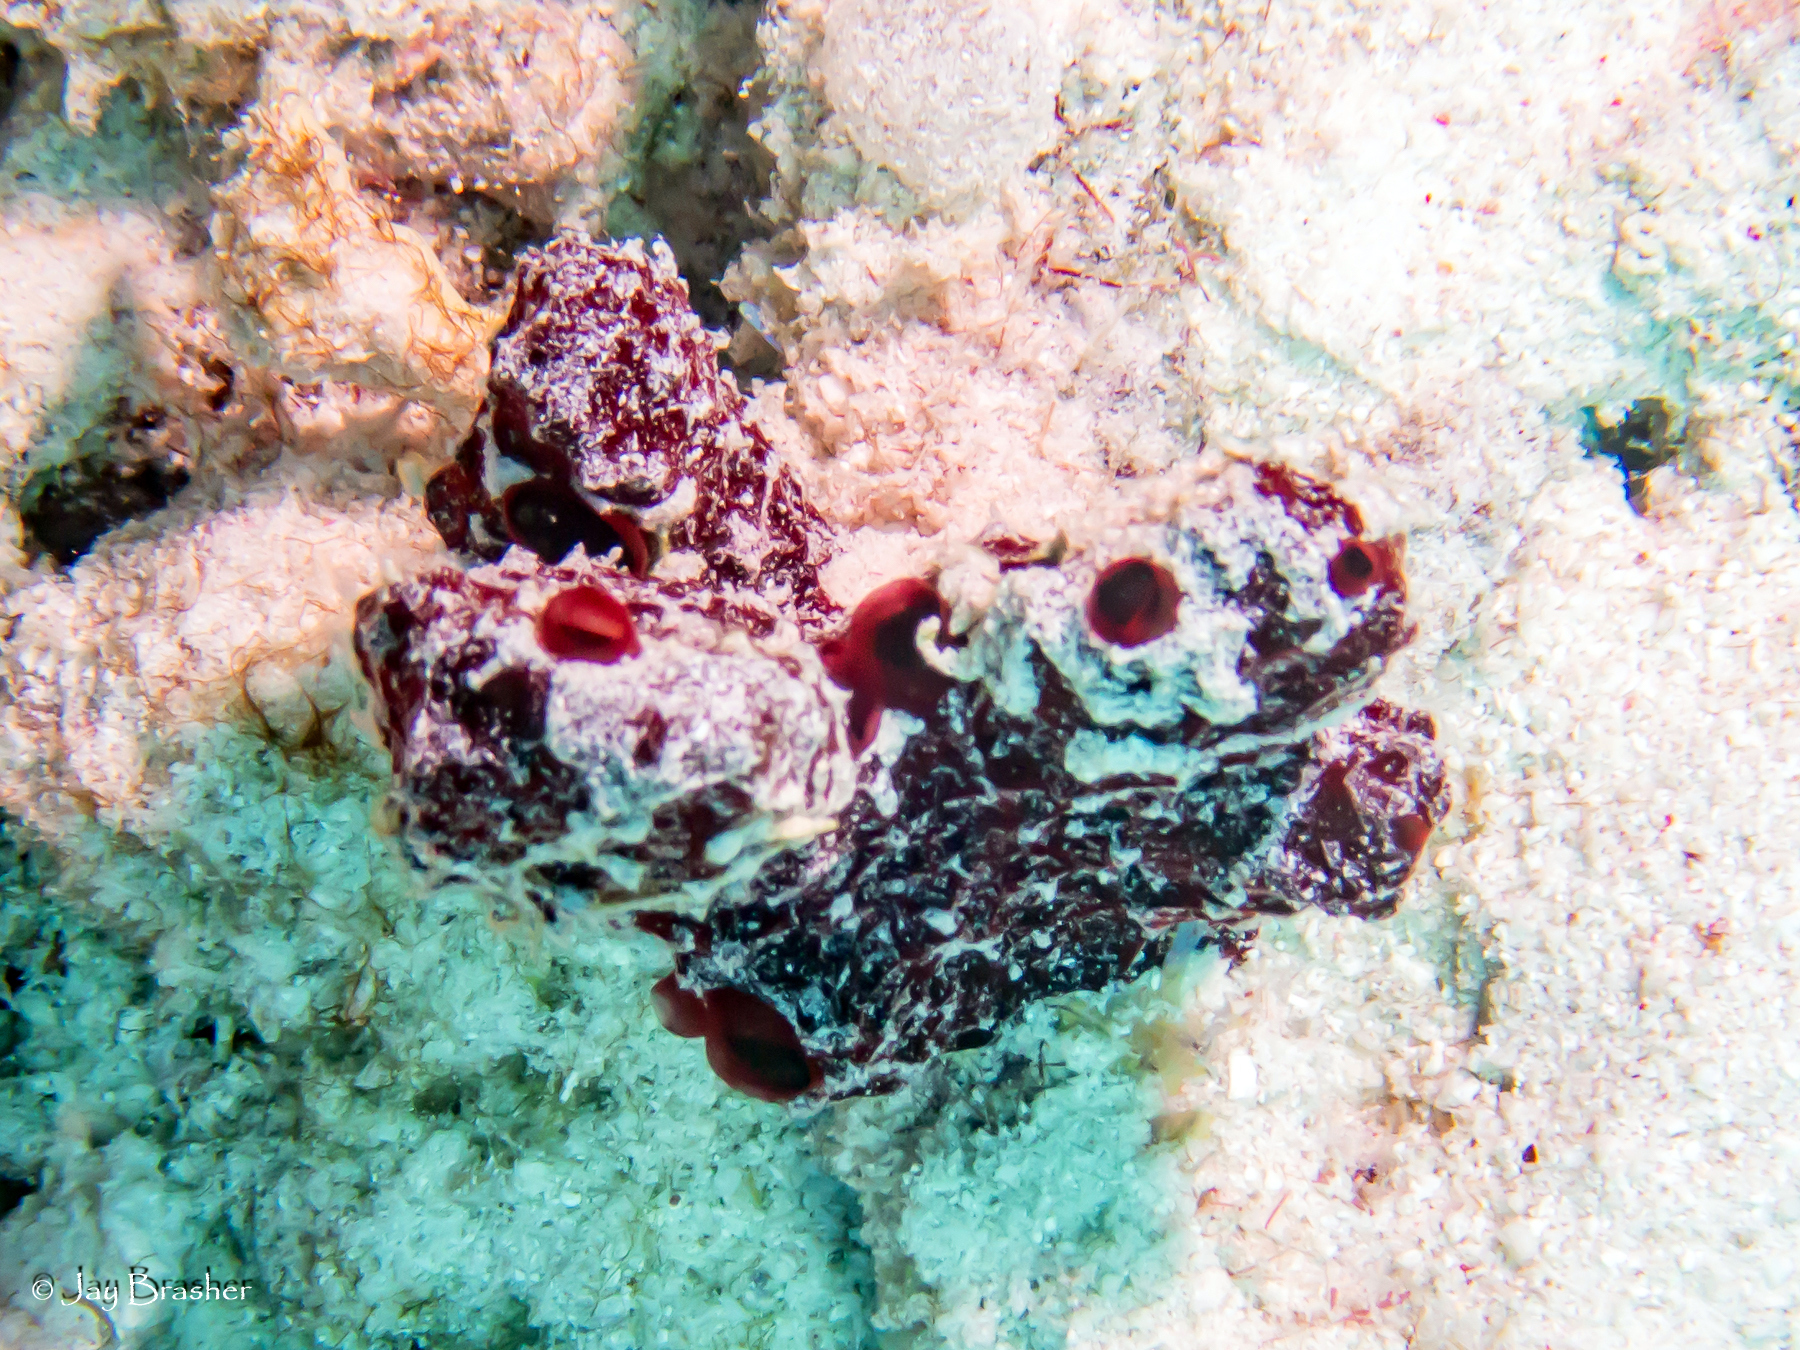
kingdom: Animalia
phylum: Porifera
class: Demospongiae
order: Poecilosclerida
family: Microcionidae
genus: Pandaros
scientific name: Pandaros acanthifolium
